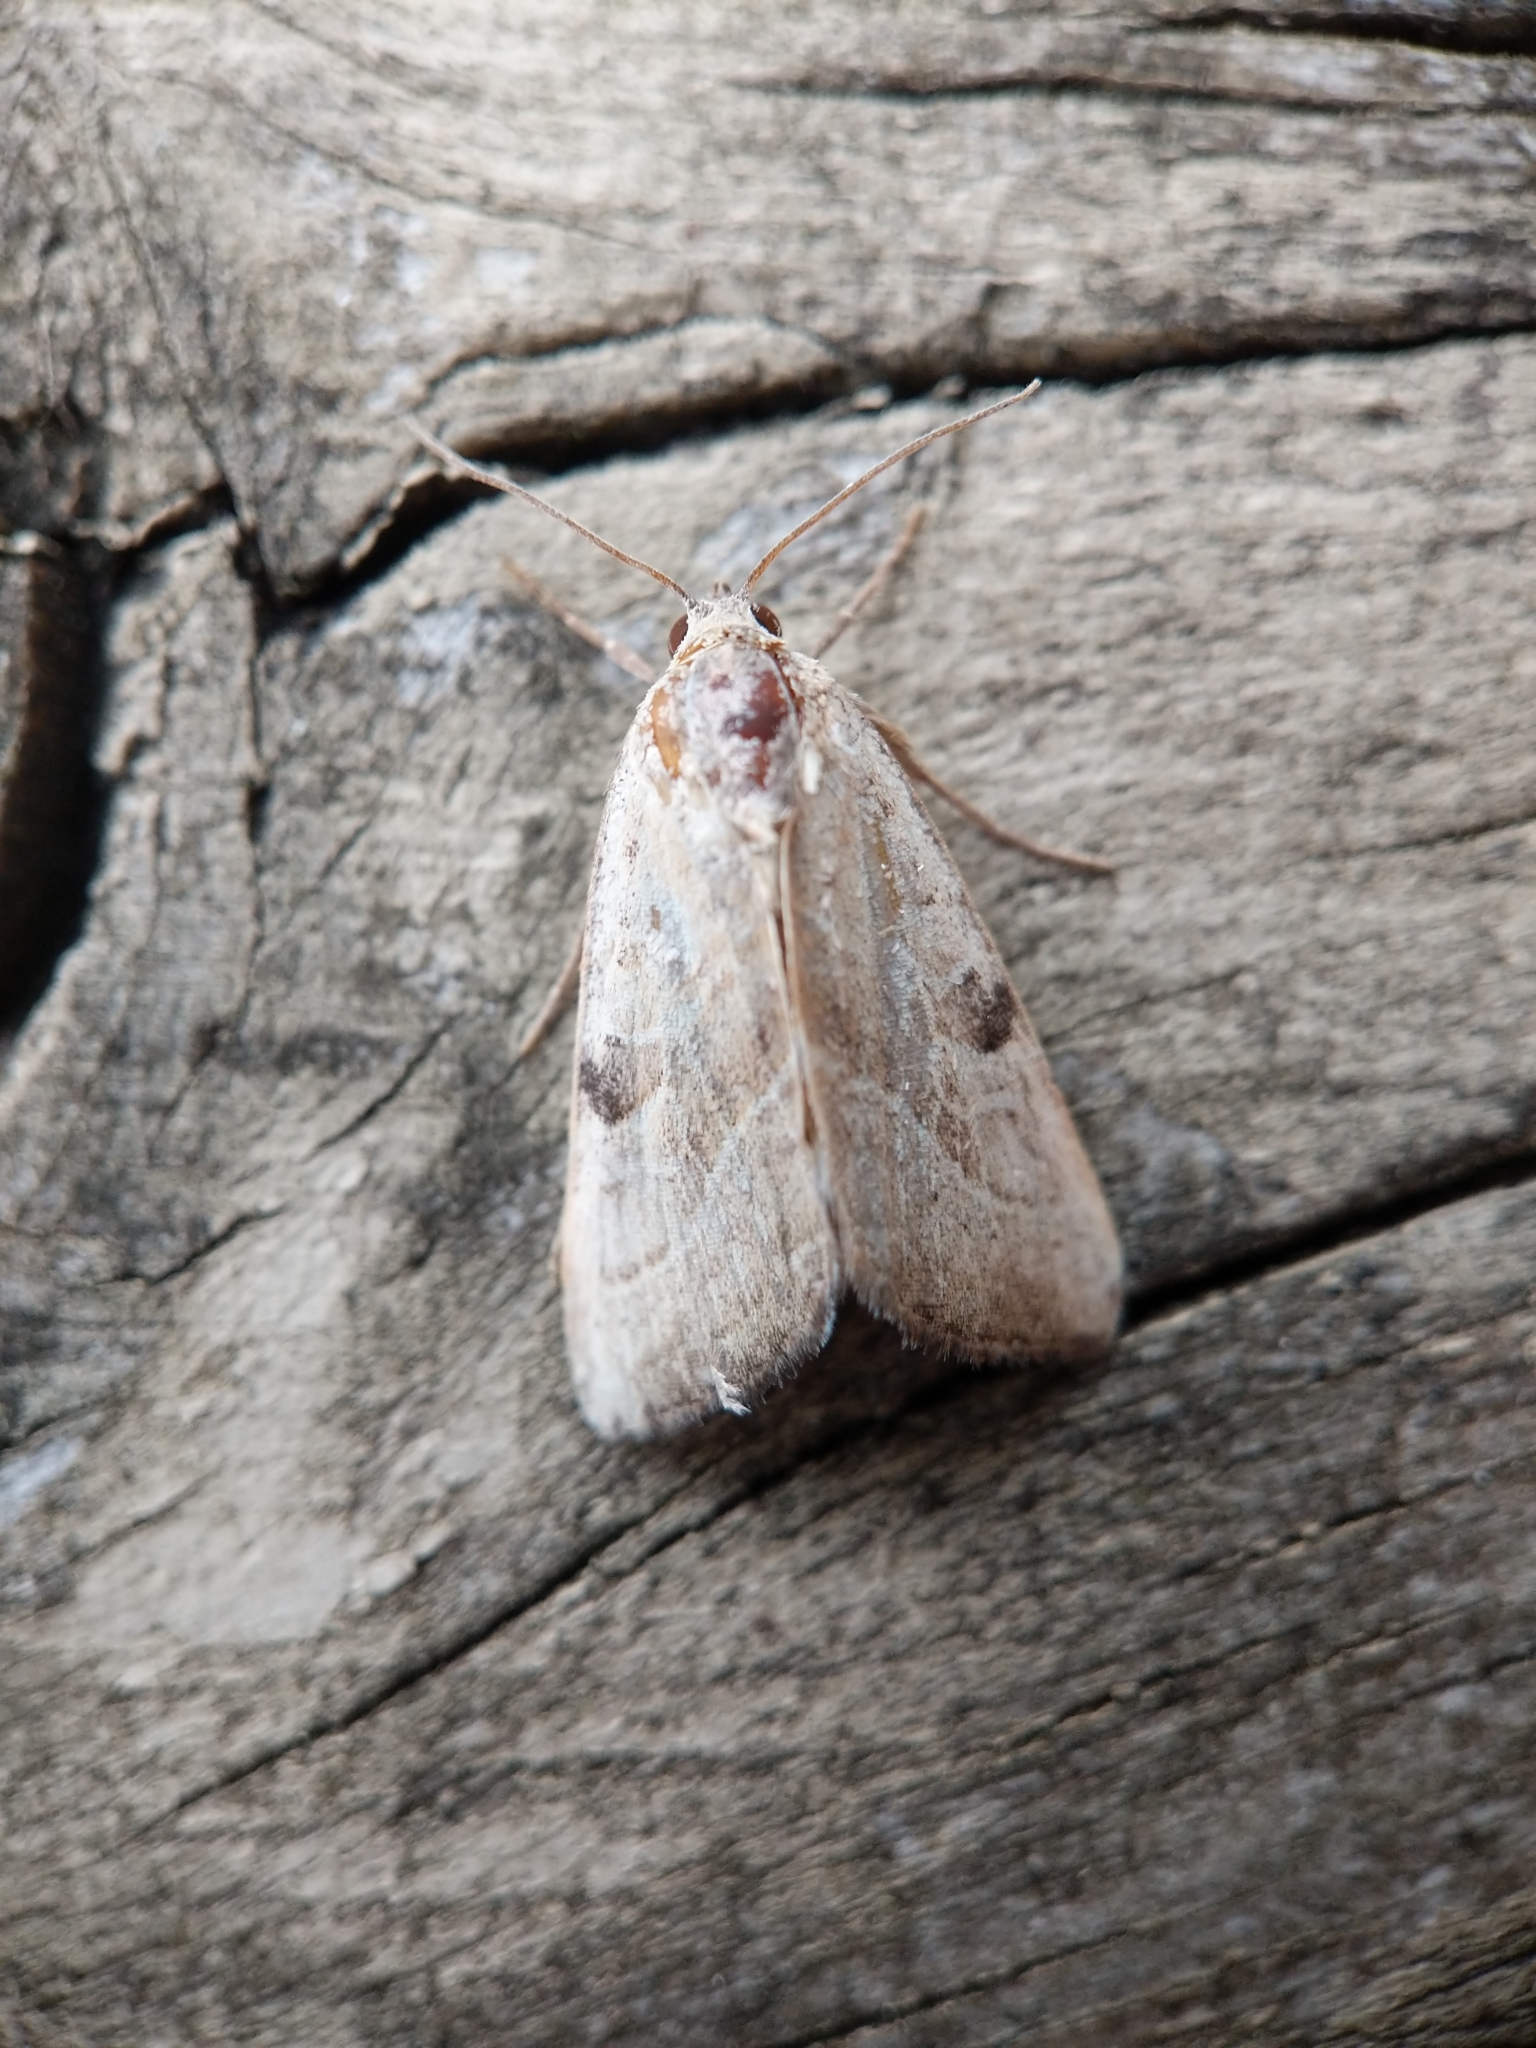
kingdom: Animalia
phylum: Arthropoda
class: Insecta
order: Lepidoptera
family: Noctuidae
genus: Galgula
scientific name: Galgula partita
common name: Wedgeling
